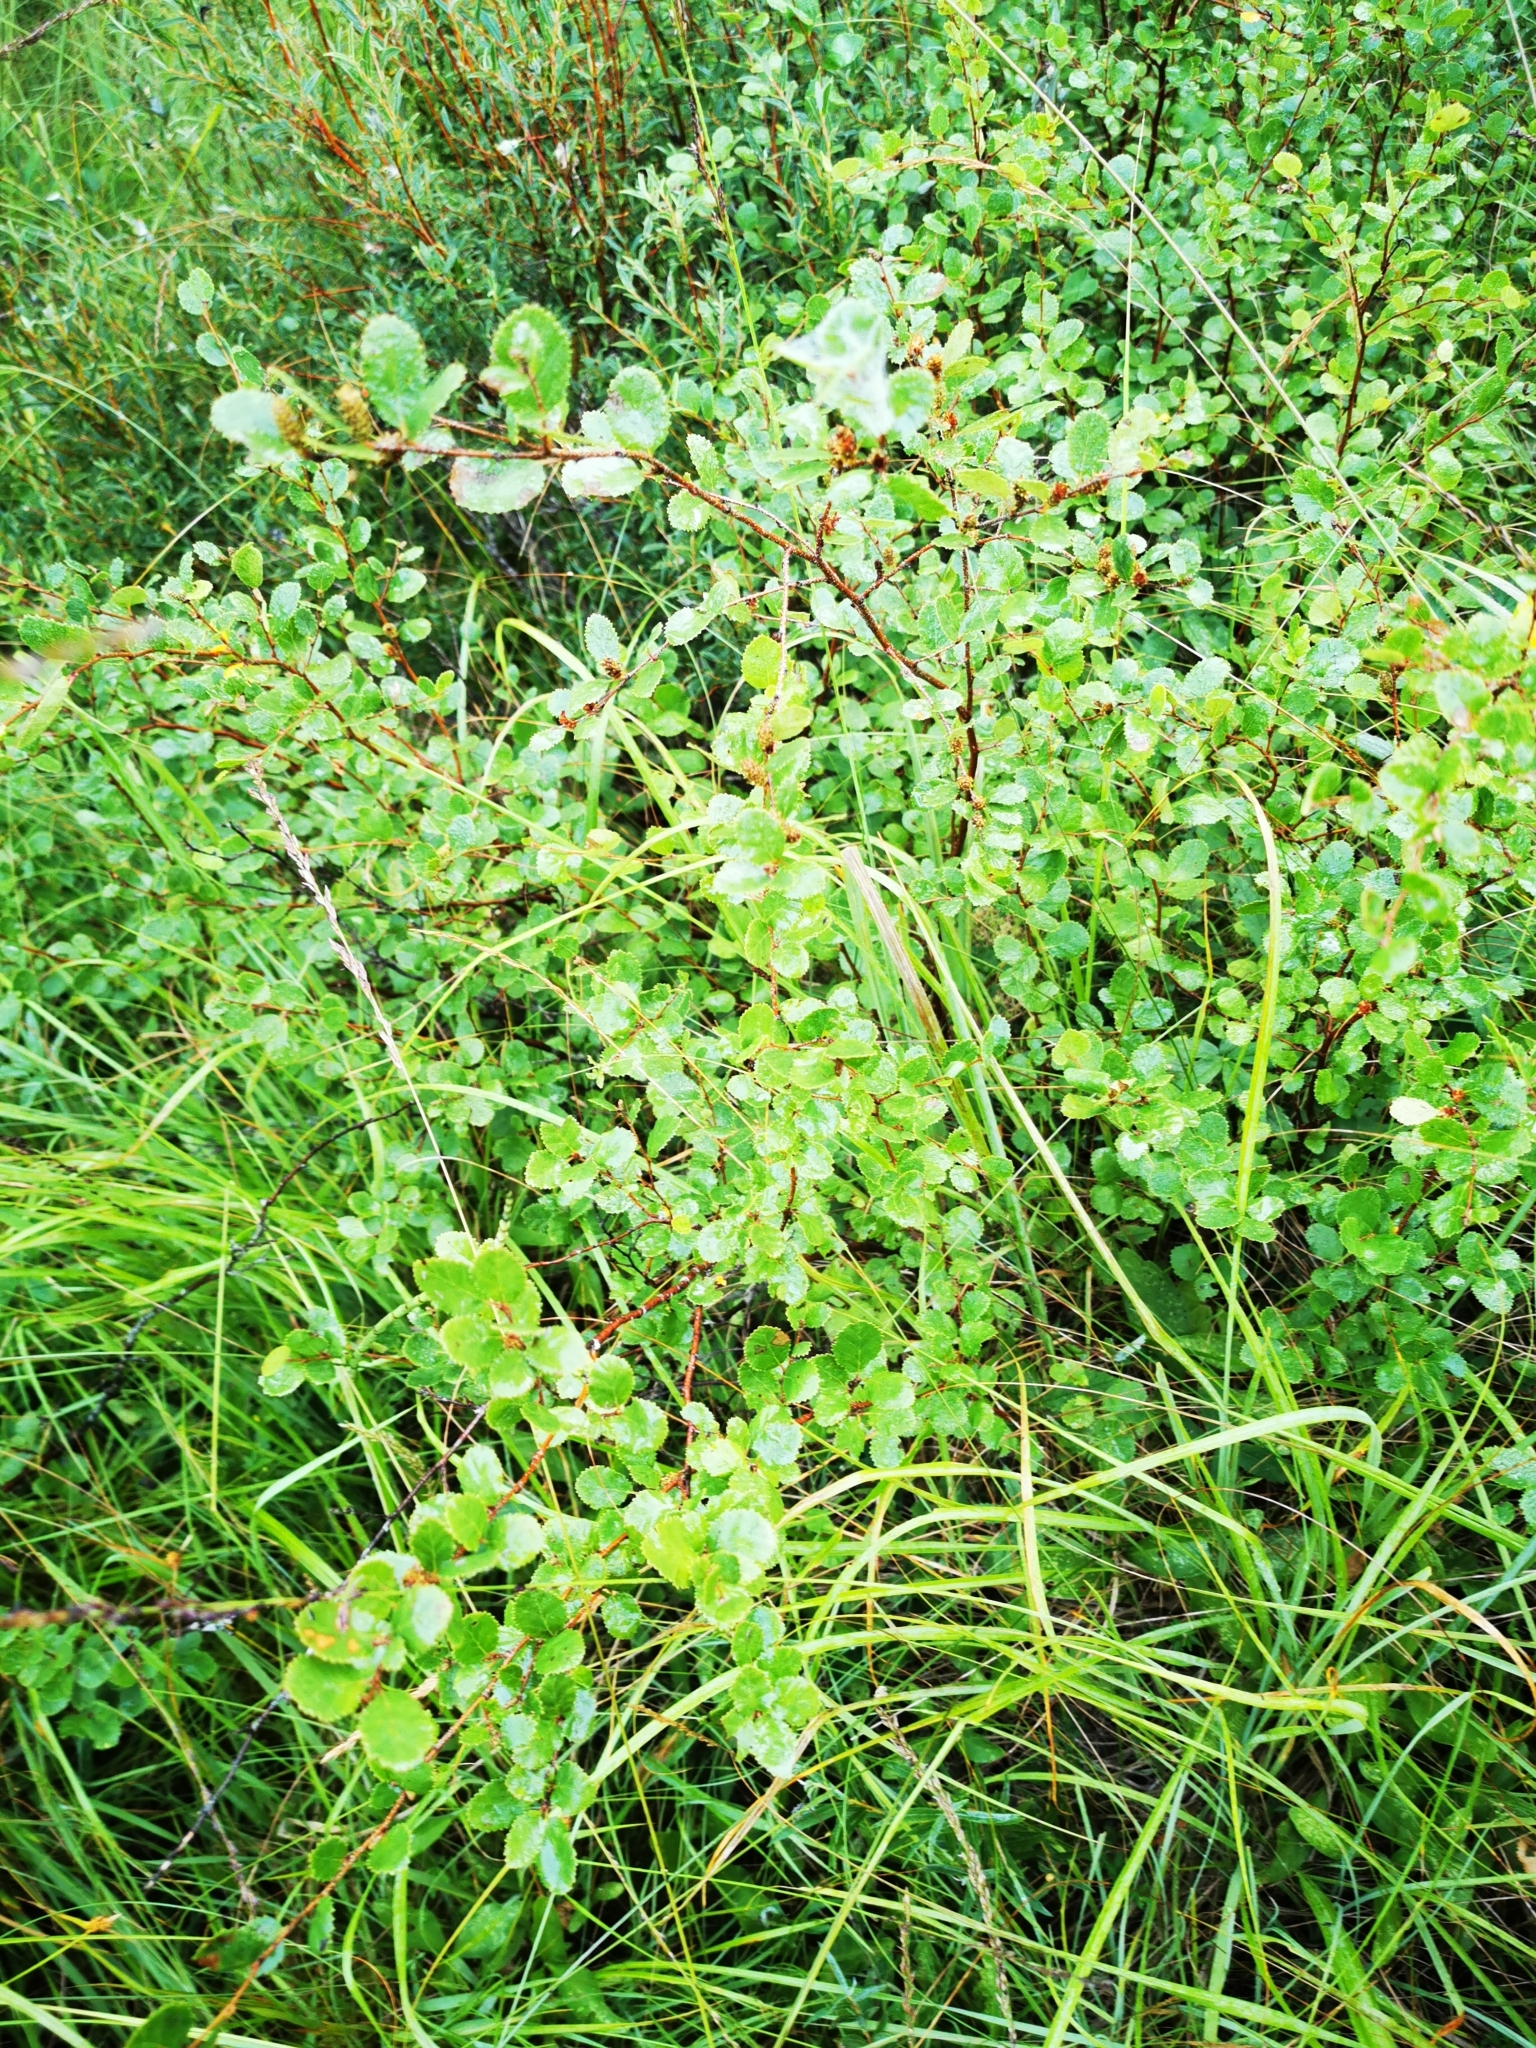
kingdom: Plantae
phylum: Tracheophyta
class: Magnoliopsida
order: Fagales
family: Betulaceae
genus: Betula
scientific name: Betula humilis
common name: Shrubby birch
